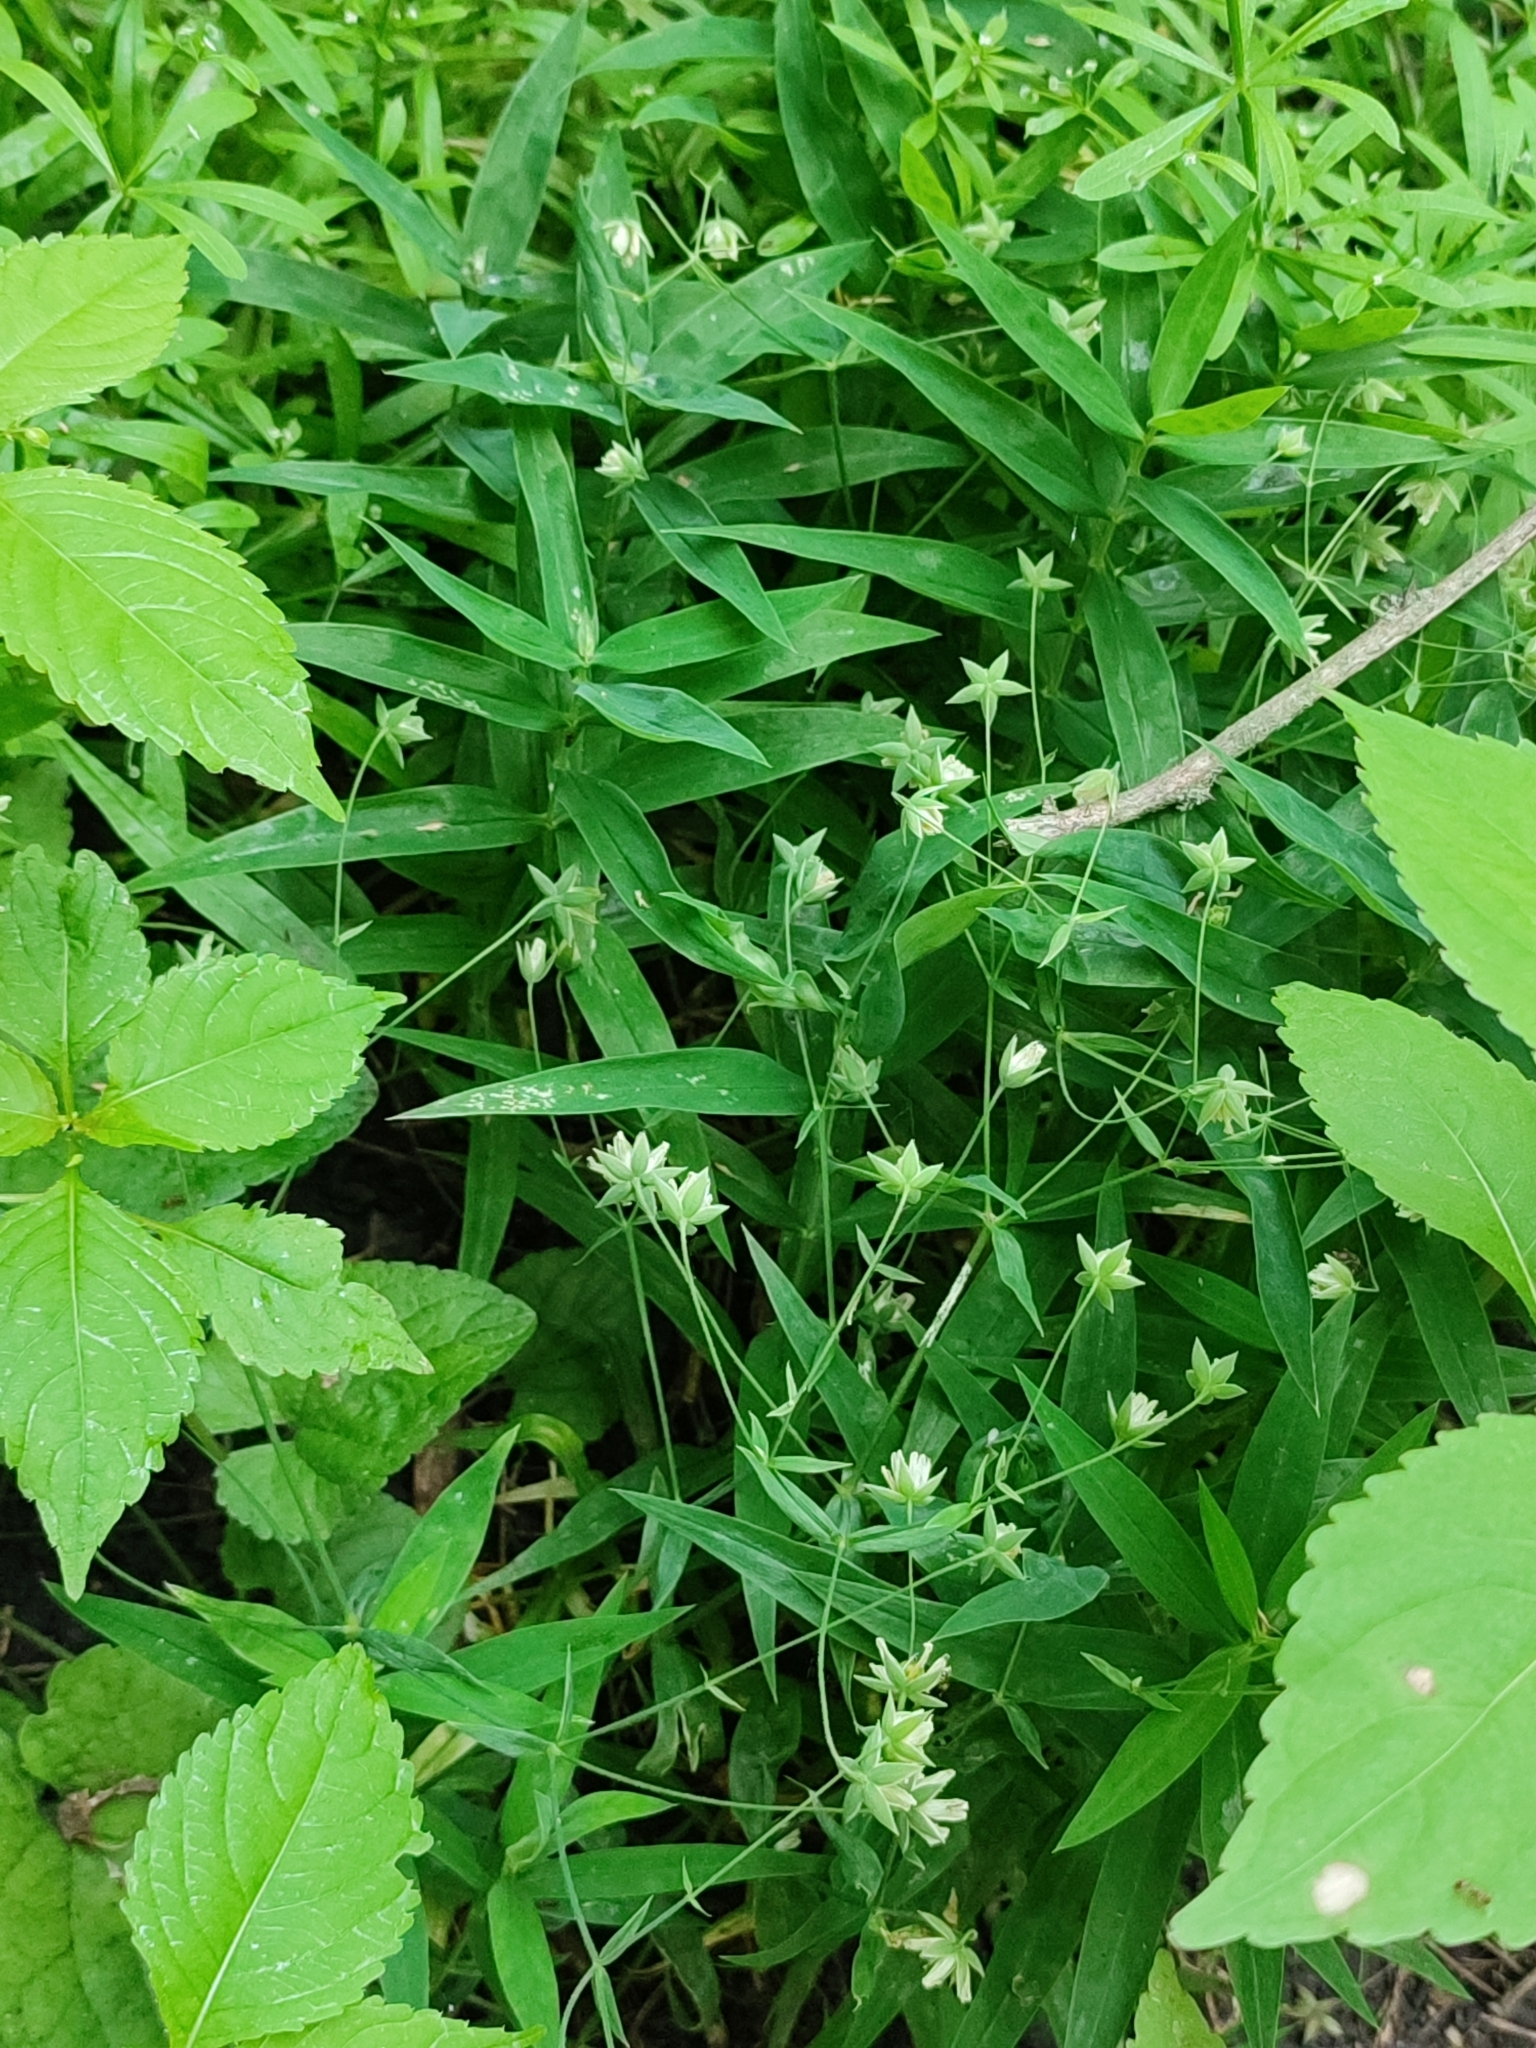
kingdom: Plantae
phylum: Tracheophyta
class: Magnoliopsida
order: Caryophyllales
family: Caryophyllaceae
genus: Rabelera
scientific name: Rabelera holostea
